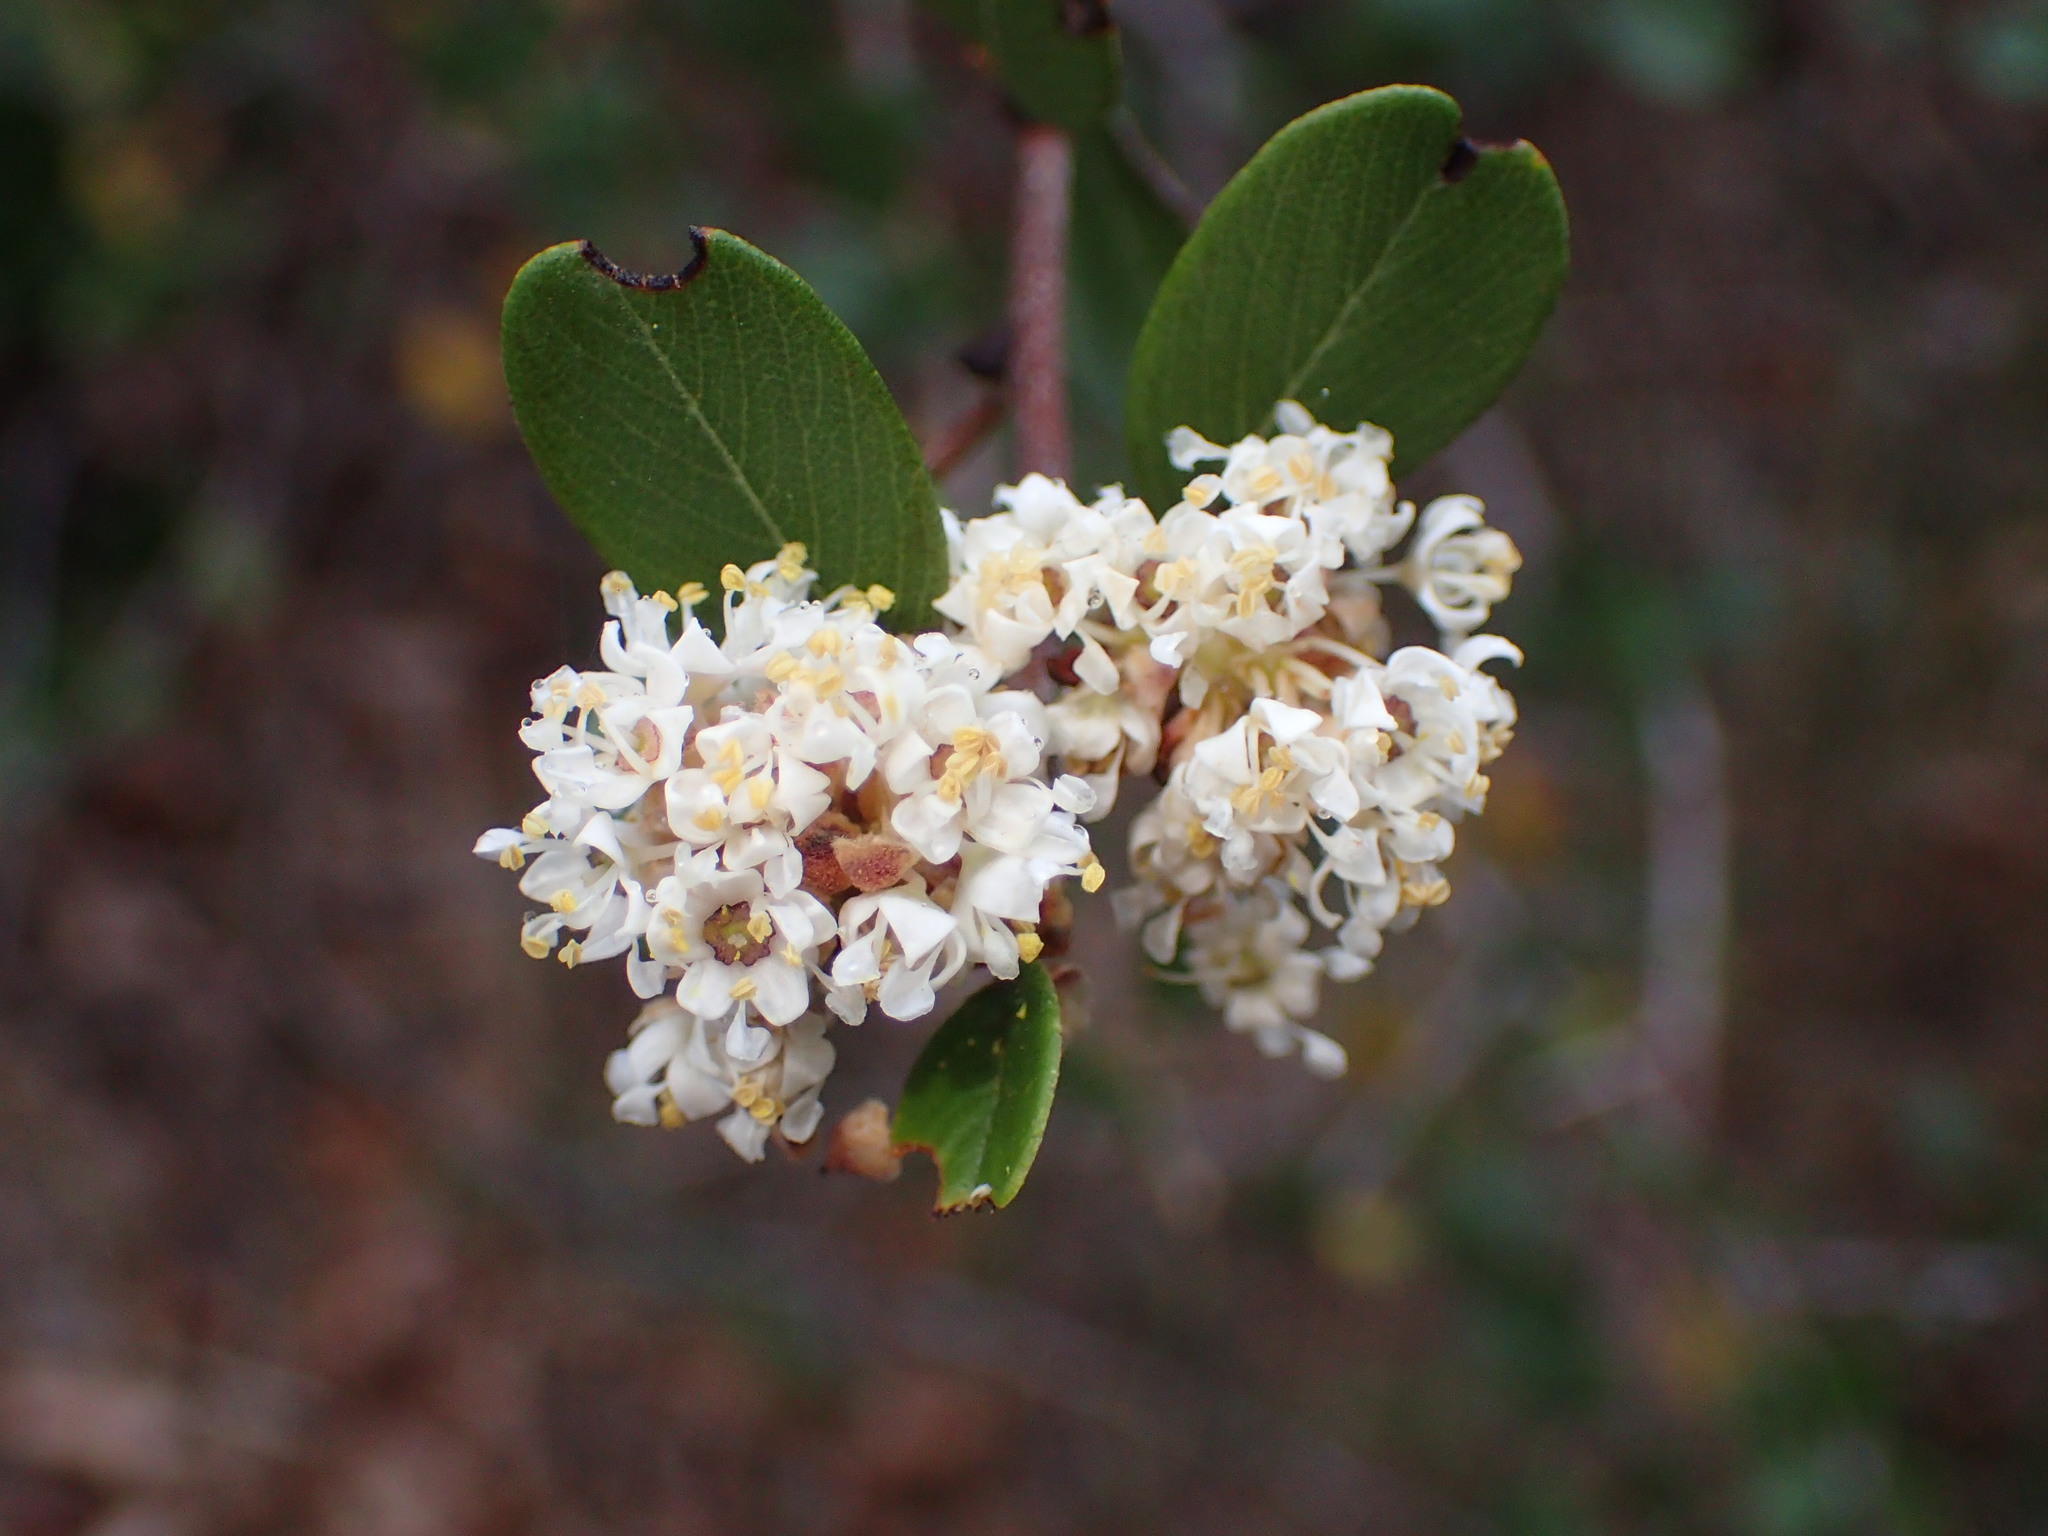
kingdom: Plantae
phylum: Tracheophyta
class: Magnoliopsida
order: Rosales
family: Rhamnaceae
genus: Ceanothus
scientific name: Ceanothus megacarpus
